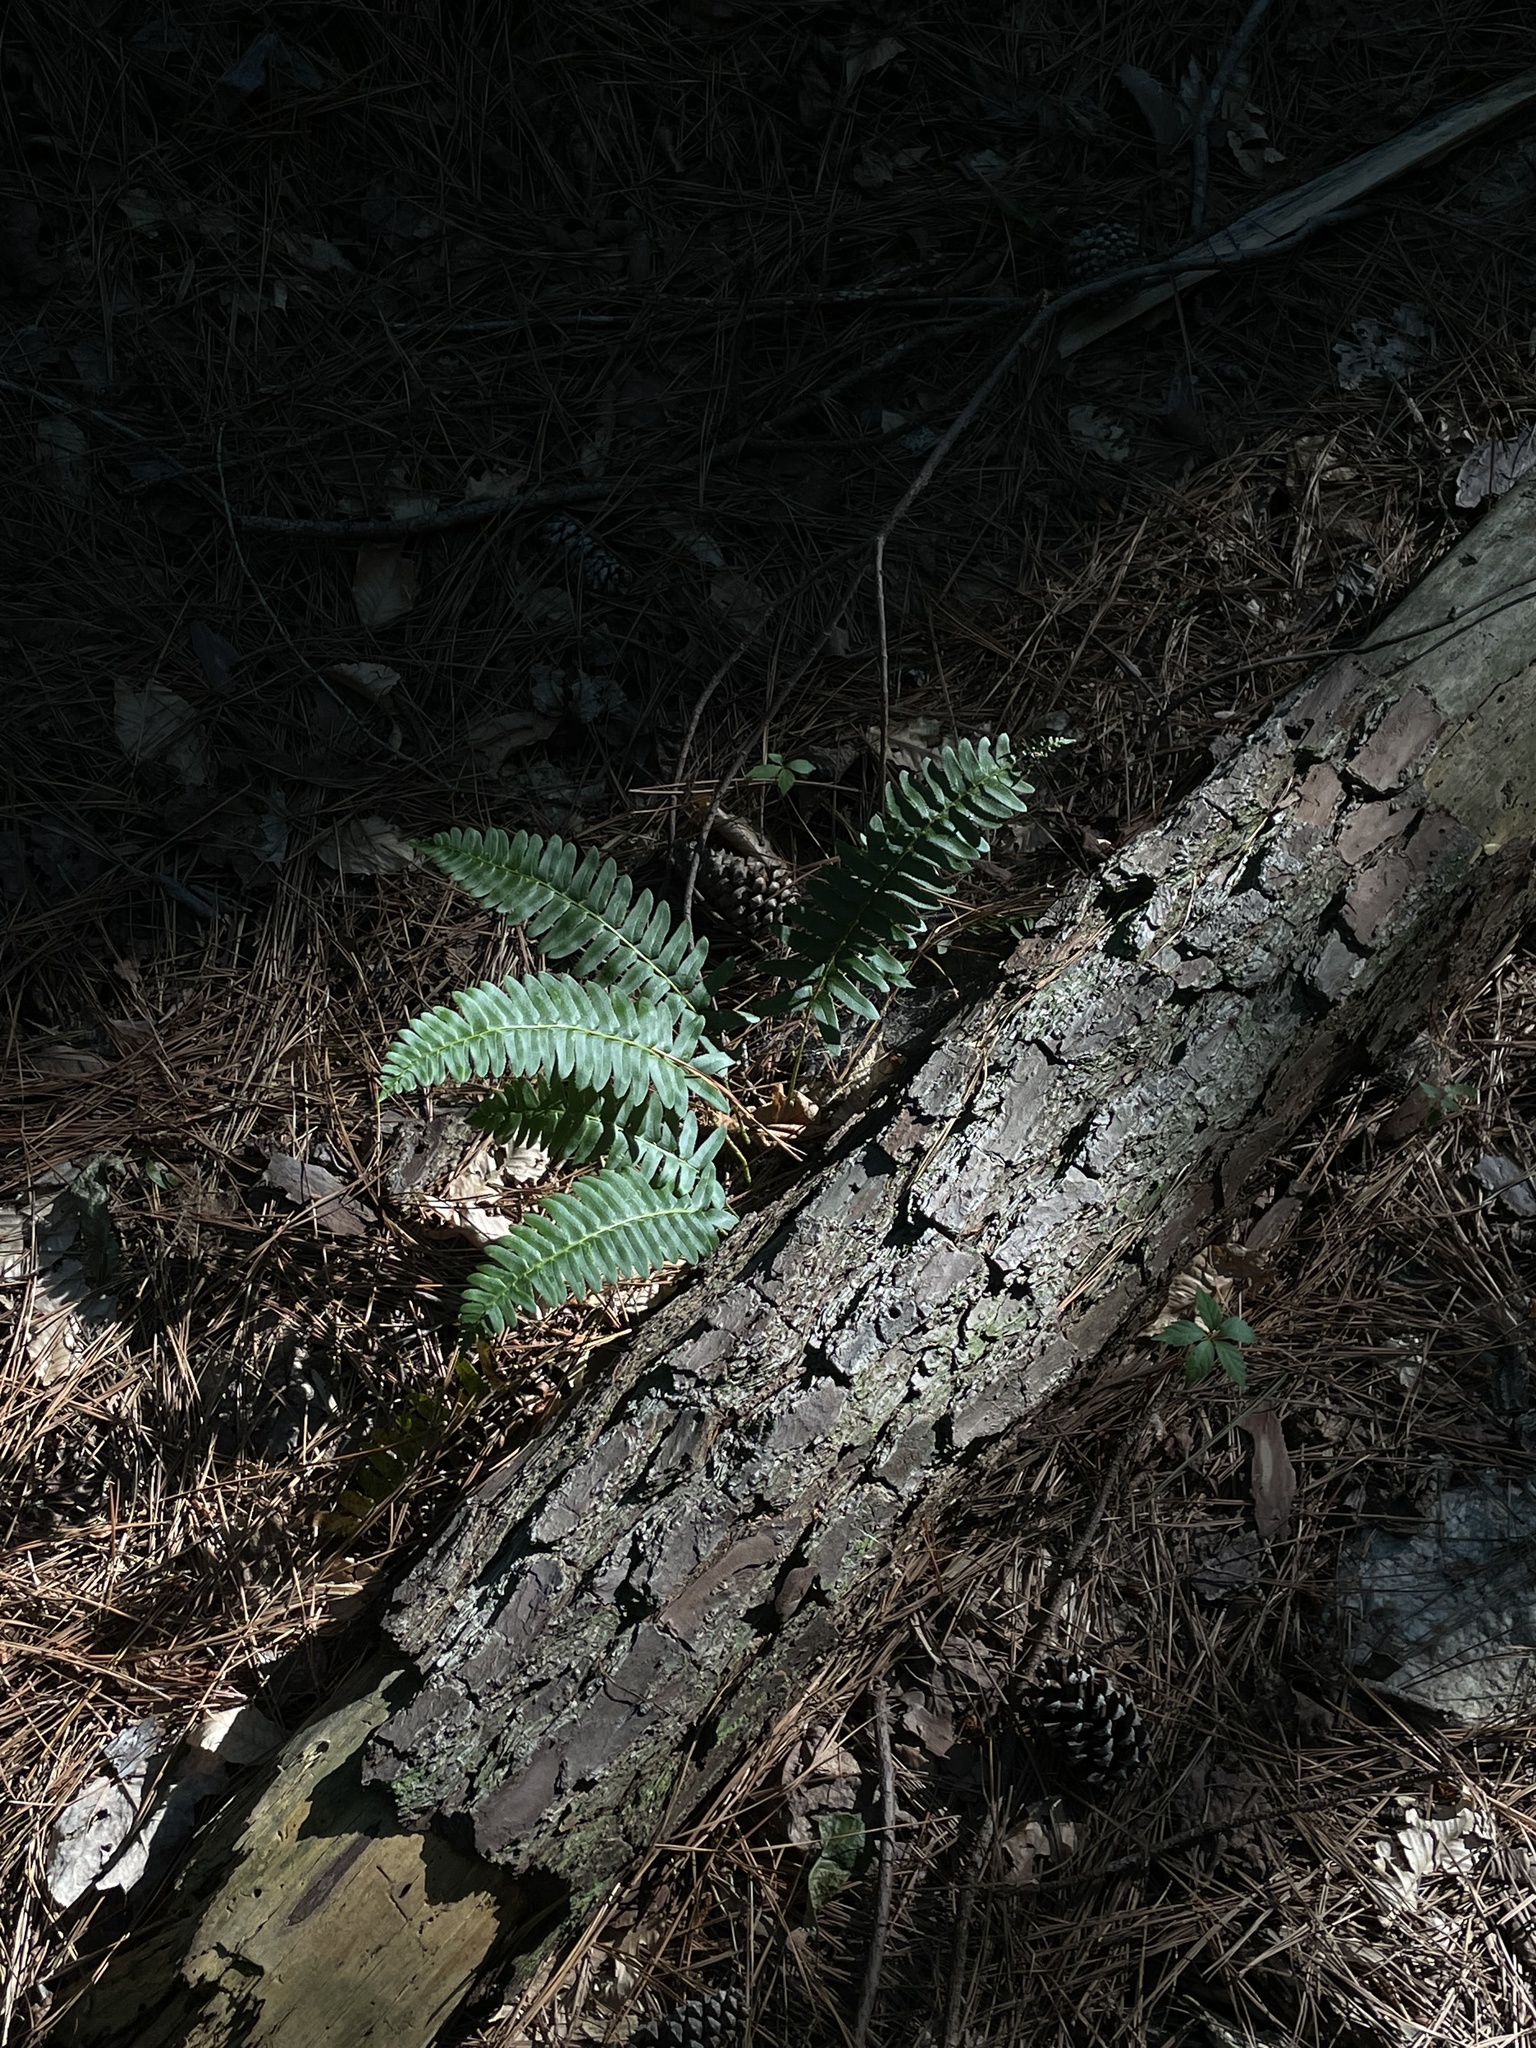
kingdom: Plantae
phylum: Tracheophyta
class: Polypodiopsida
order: Polypodiales
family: Dryopteridaceae
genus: Polystichum
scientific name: Polystichum acrostichoides
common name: Christmas fern
